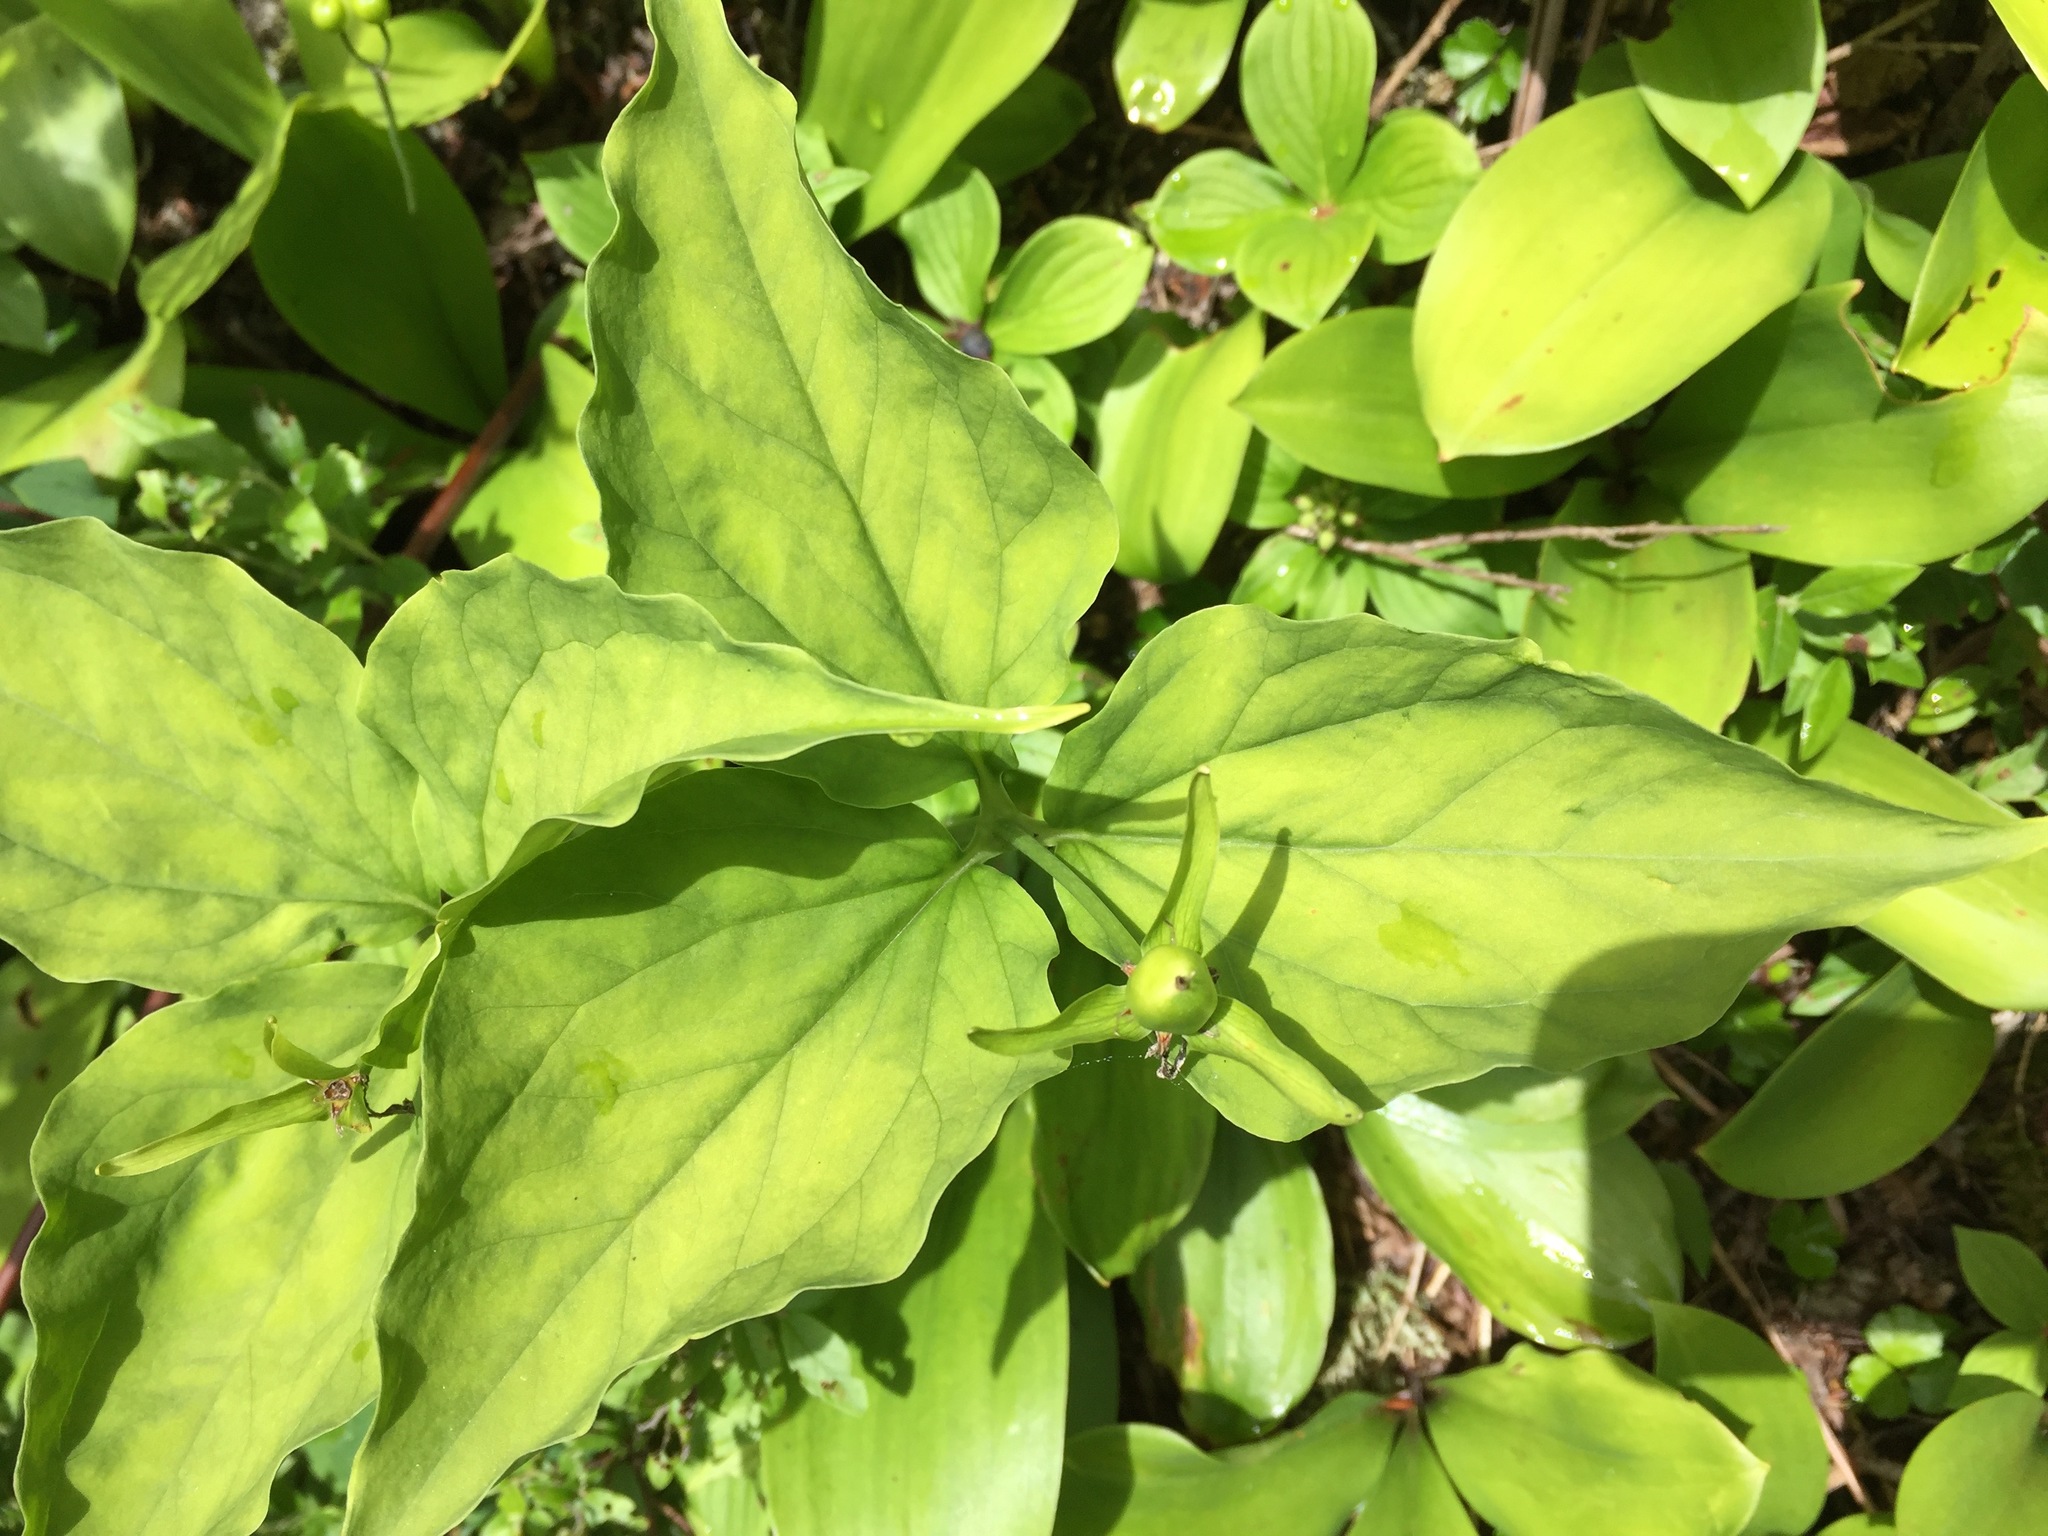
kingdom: Plantae
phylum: Tracheophyta
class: Liliopsida
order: Liliales
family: Melanthiaceae
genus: Trillium
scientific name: Trillium undulatum
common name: Paint trillium
